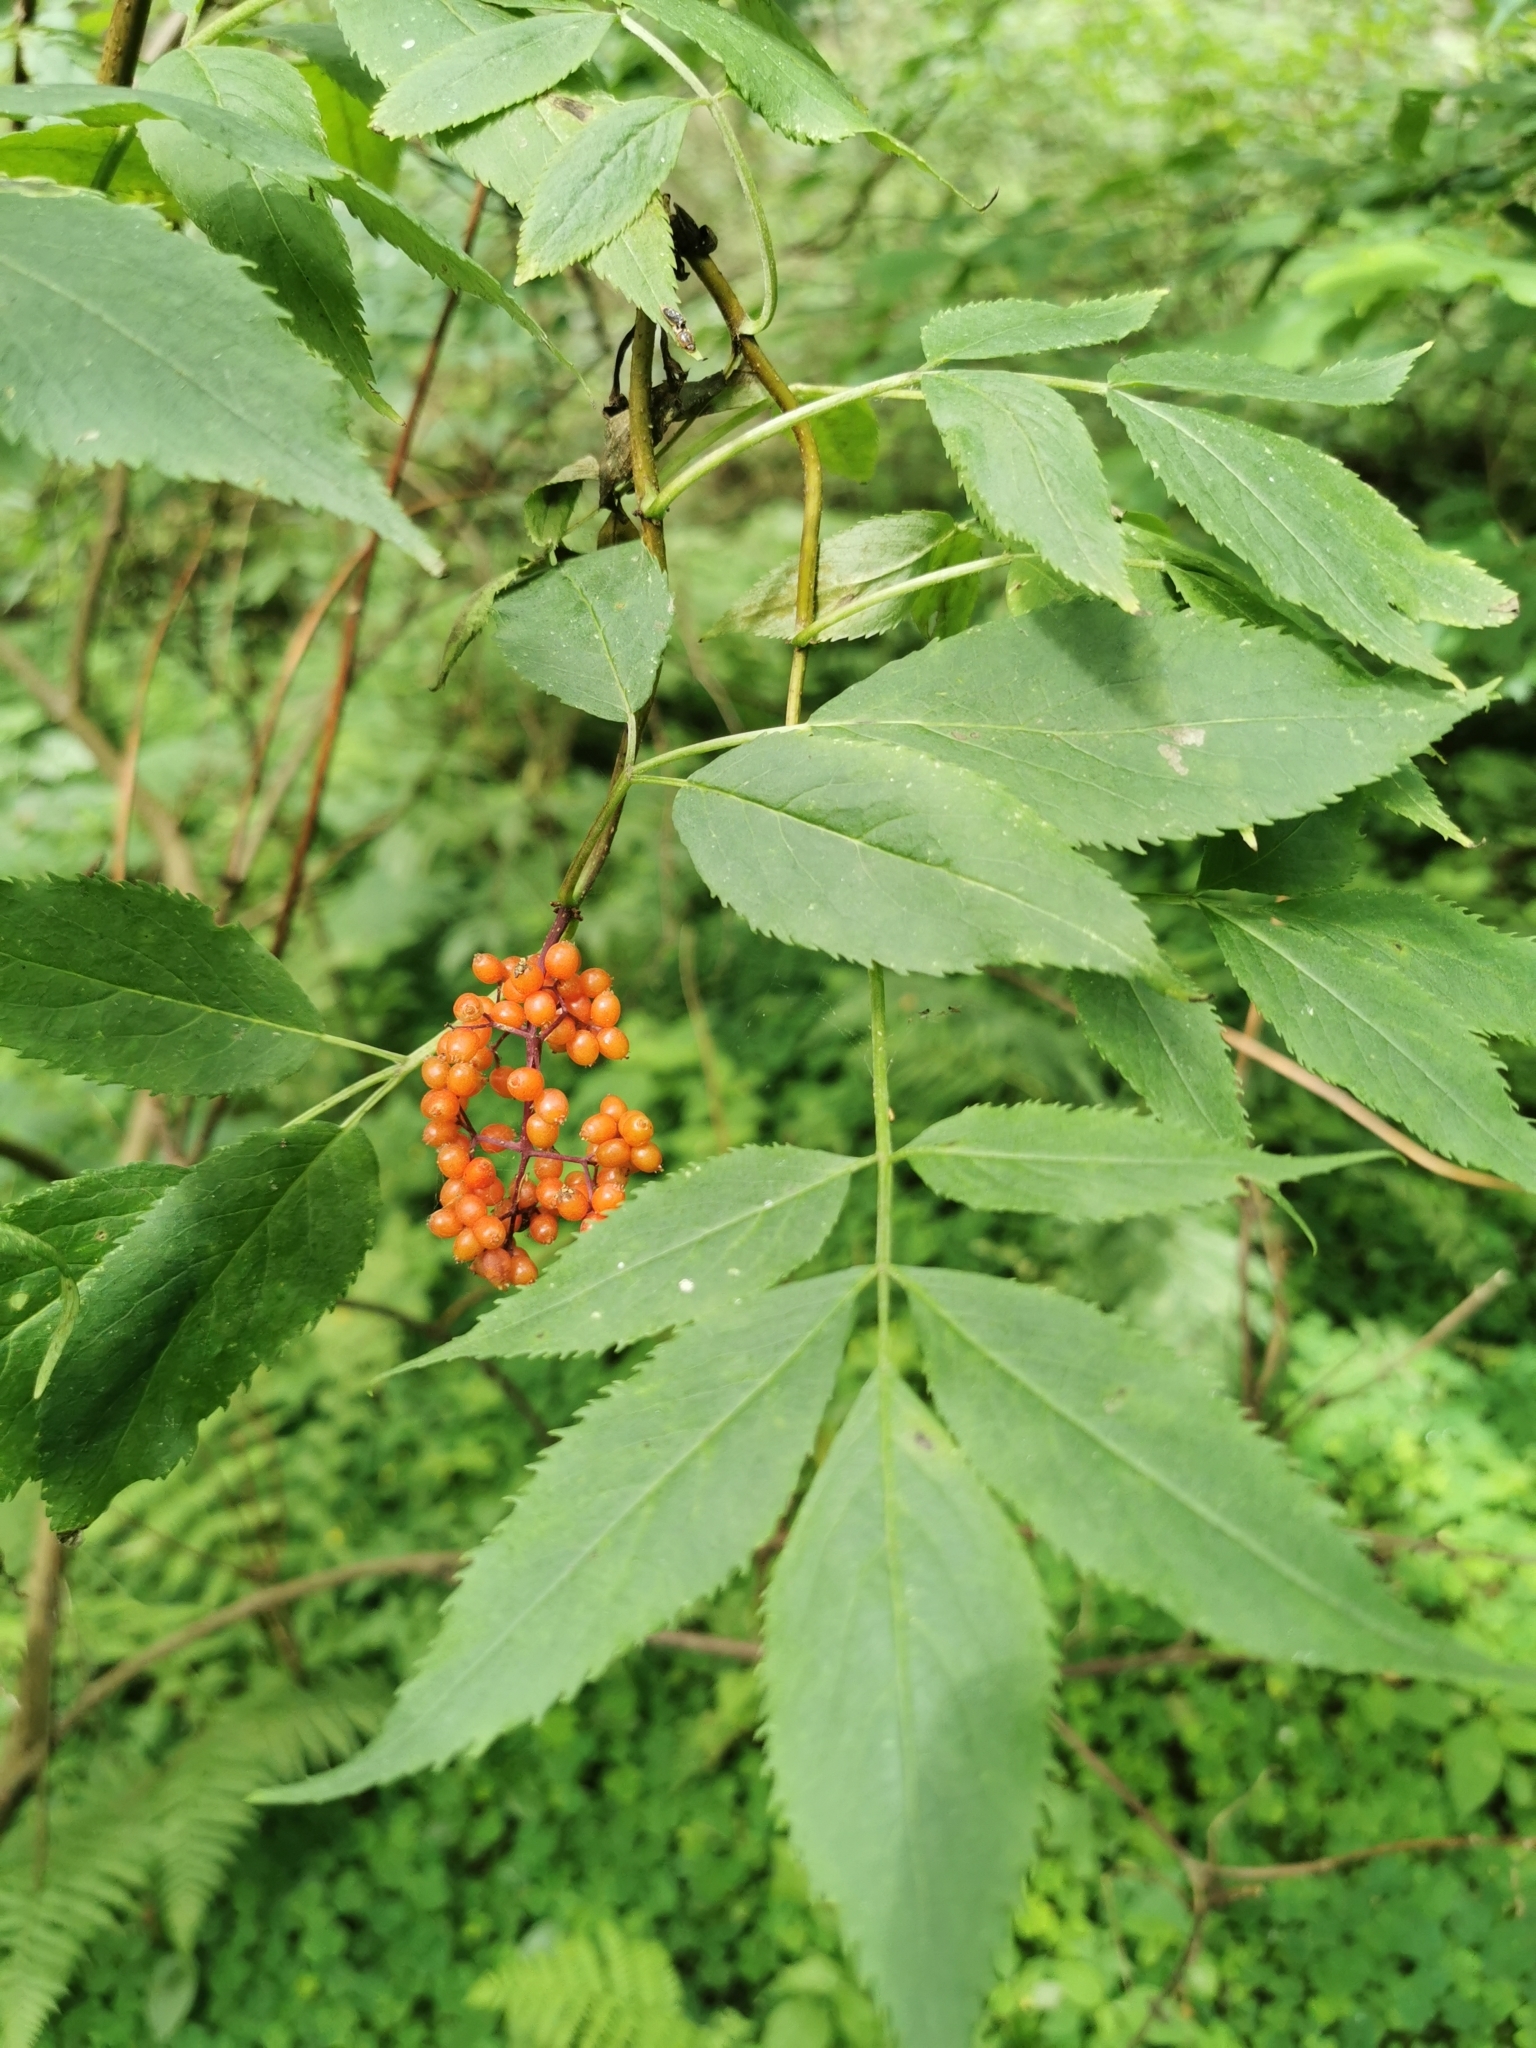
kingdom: Plantae
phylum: Tracheophyta
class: Magnoliopsida
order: Dipsacales
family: Viburnaceae
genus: Sambucus
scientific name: Sambucus racemosa
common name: Red-berried elder
